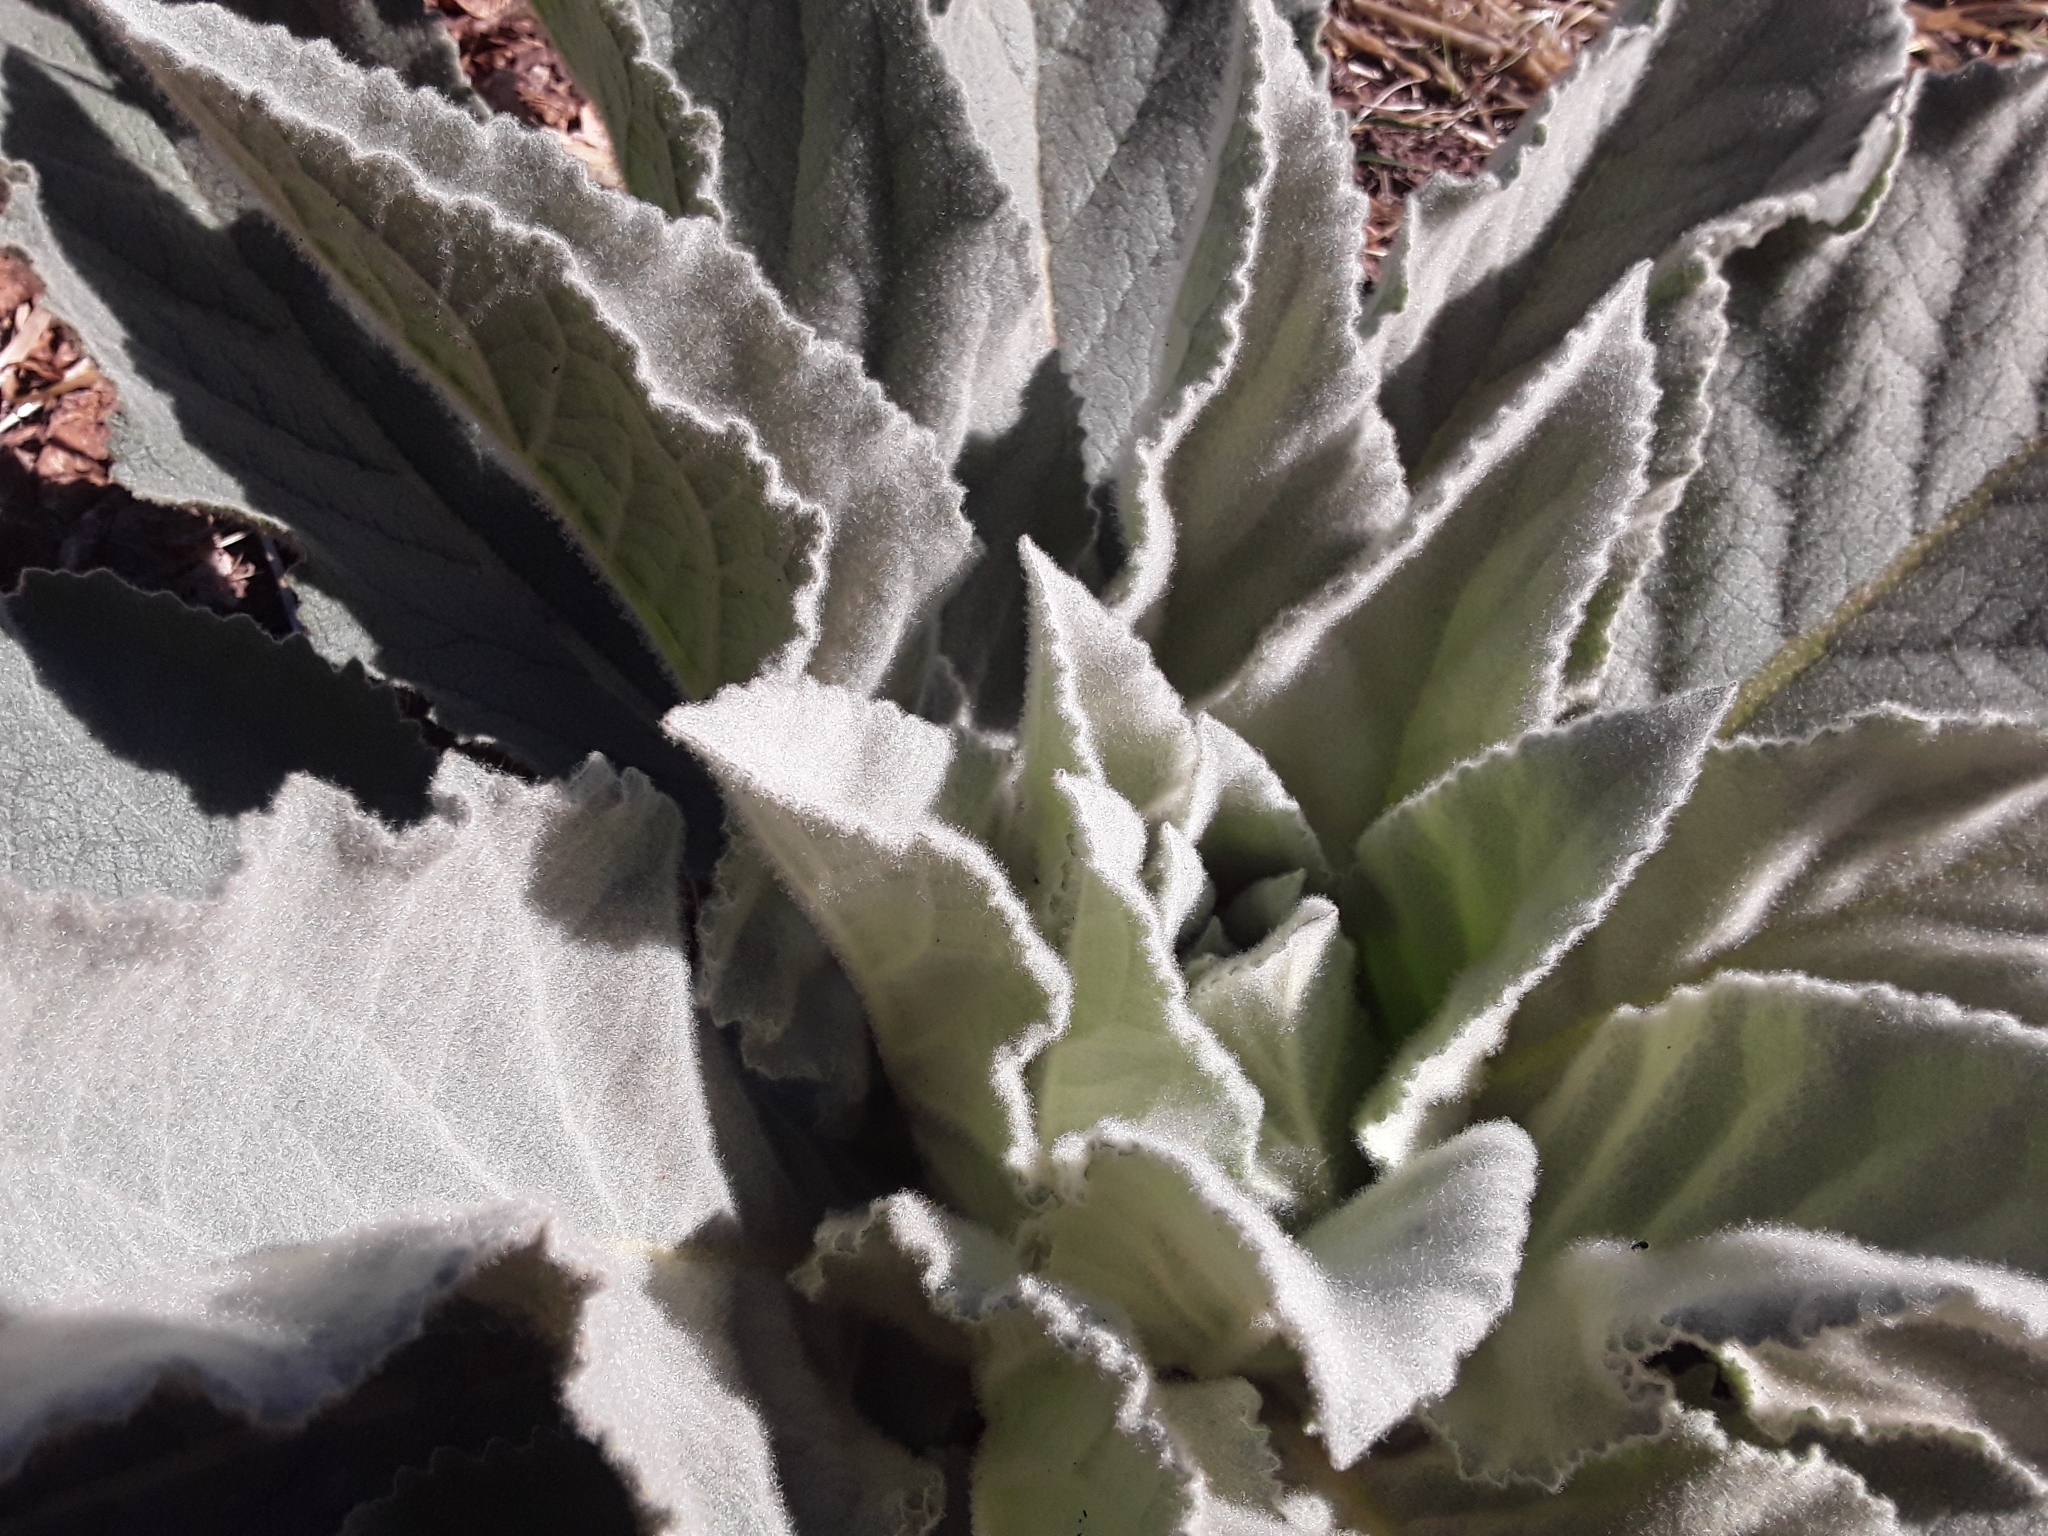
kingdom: Plantae
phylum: Tracheophyta
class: Magnoliopsida
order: Lamiales
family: Scrophulariaceae
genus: Verbascum
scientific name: Verbascum thapsus
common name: Common mullein
